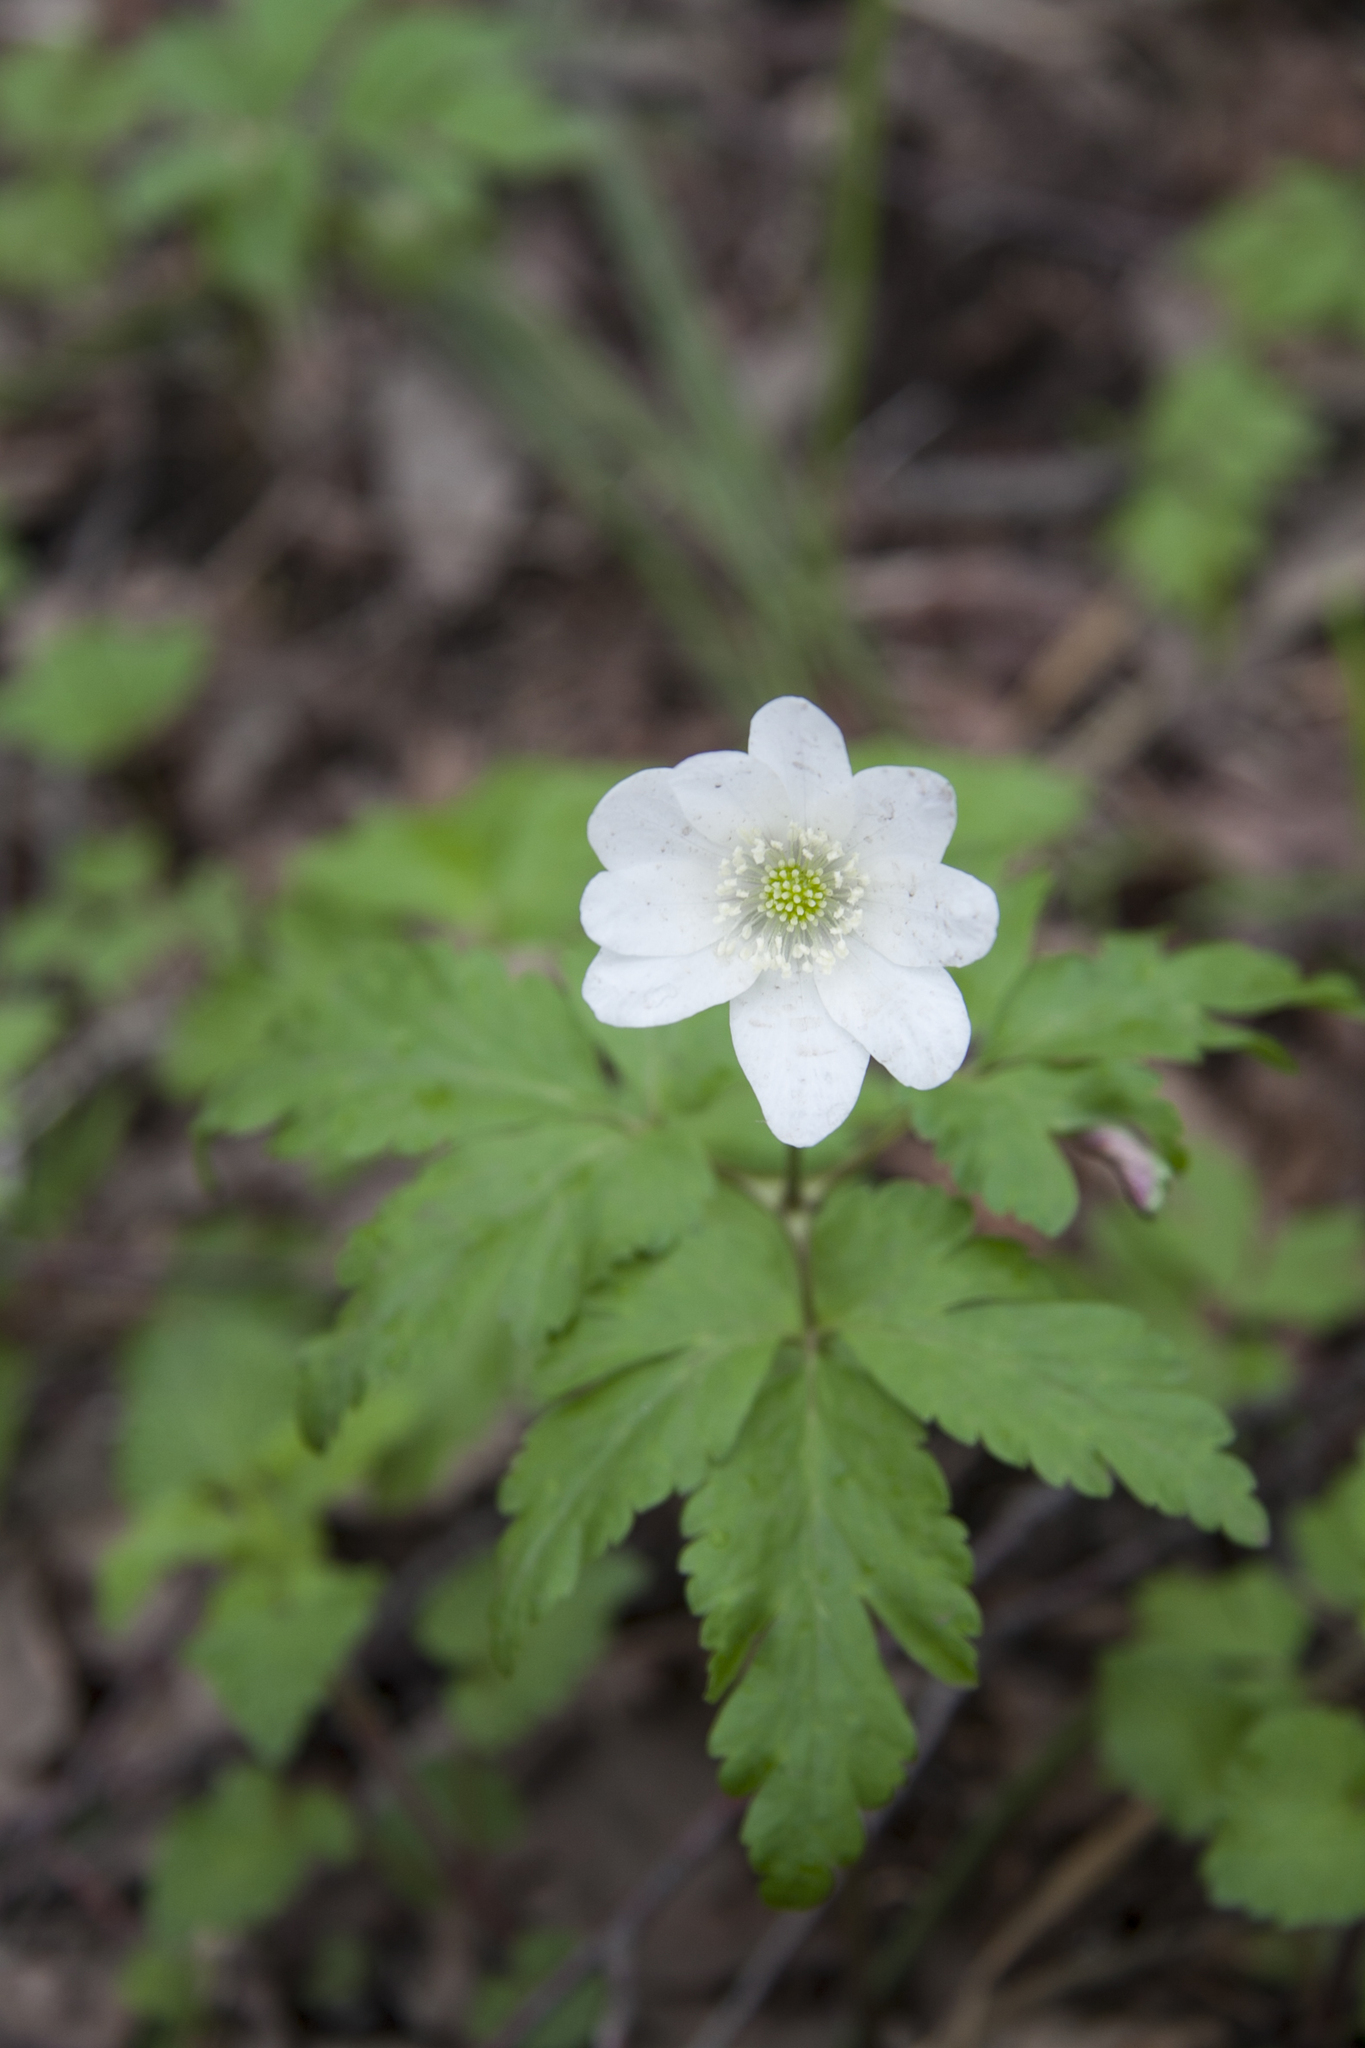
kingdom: Plantae
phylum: Tracheophyta
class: Magnoliopsida
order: Ranunculales
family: Ranunculaceae
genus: Anemone
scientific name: Anemone altaica
